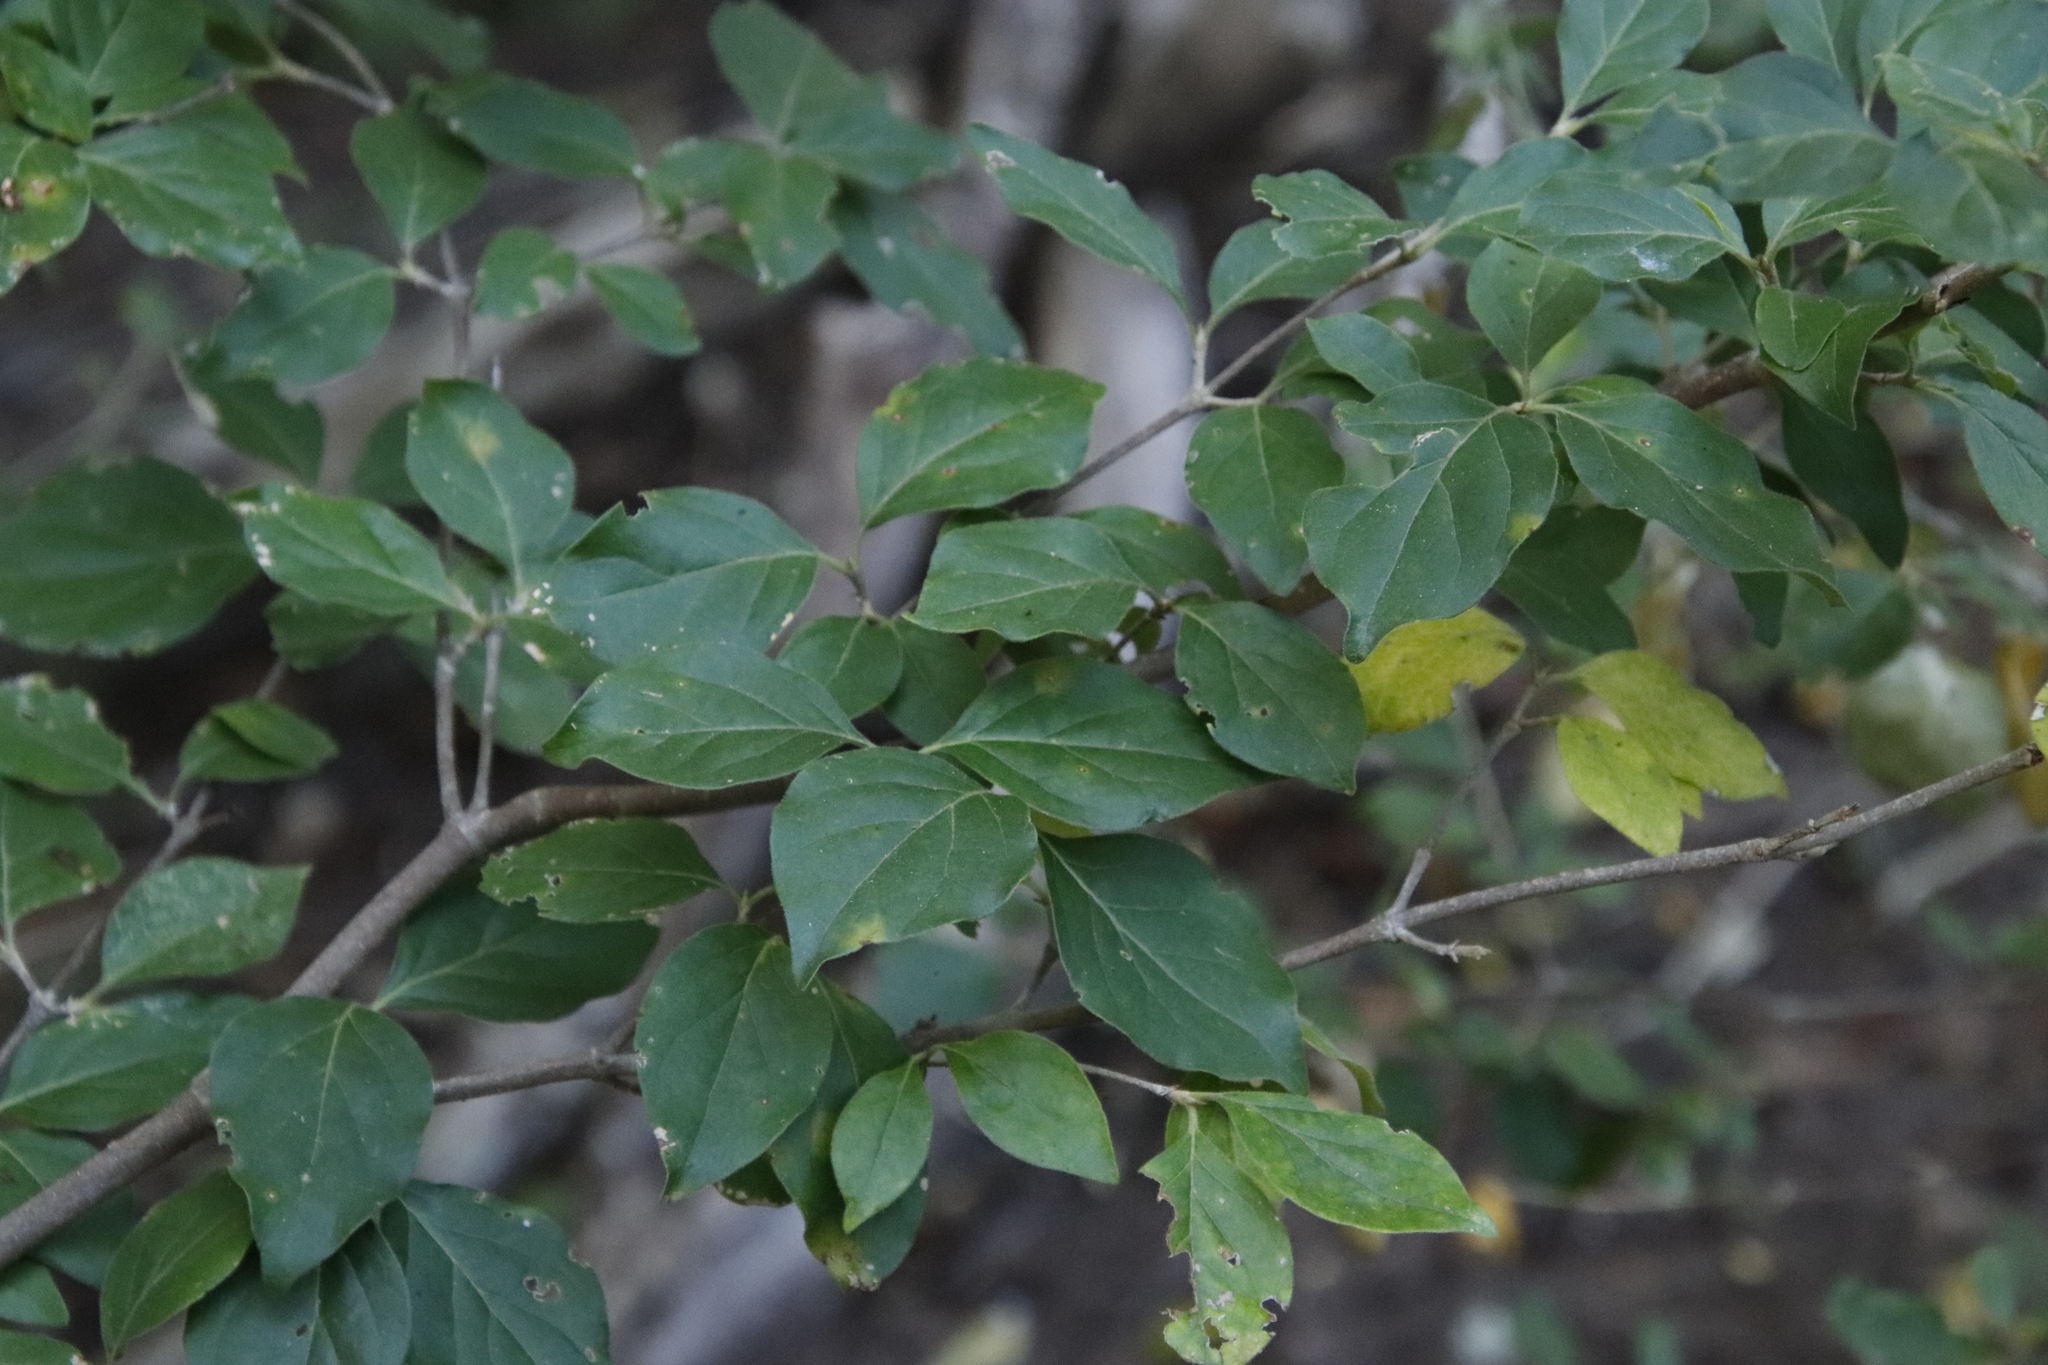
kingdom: Plantae
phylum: Tracheophyta
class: Magnoliopsida
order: Gentianales
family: Rubiaceae
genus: Afrocanthium
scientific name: Afrocanthium mundianum
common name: Rock-alder
